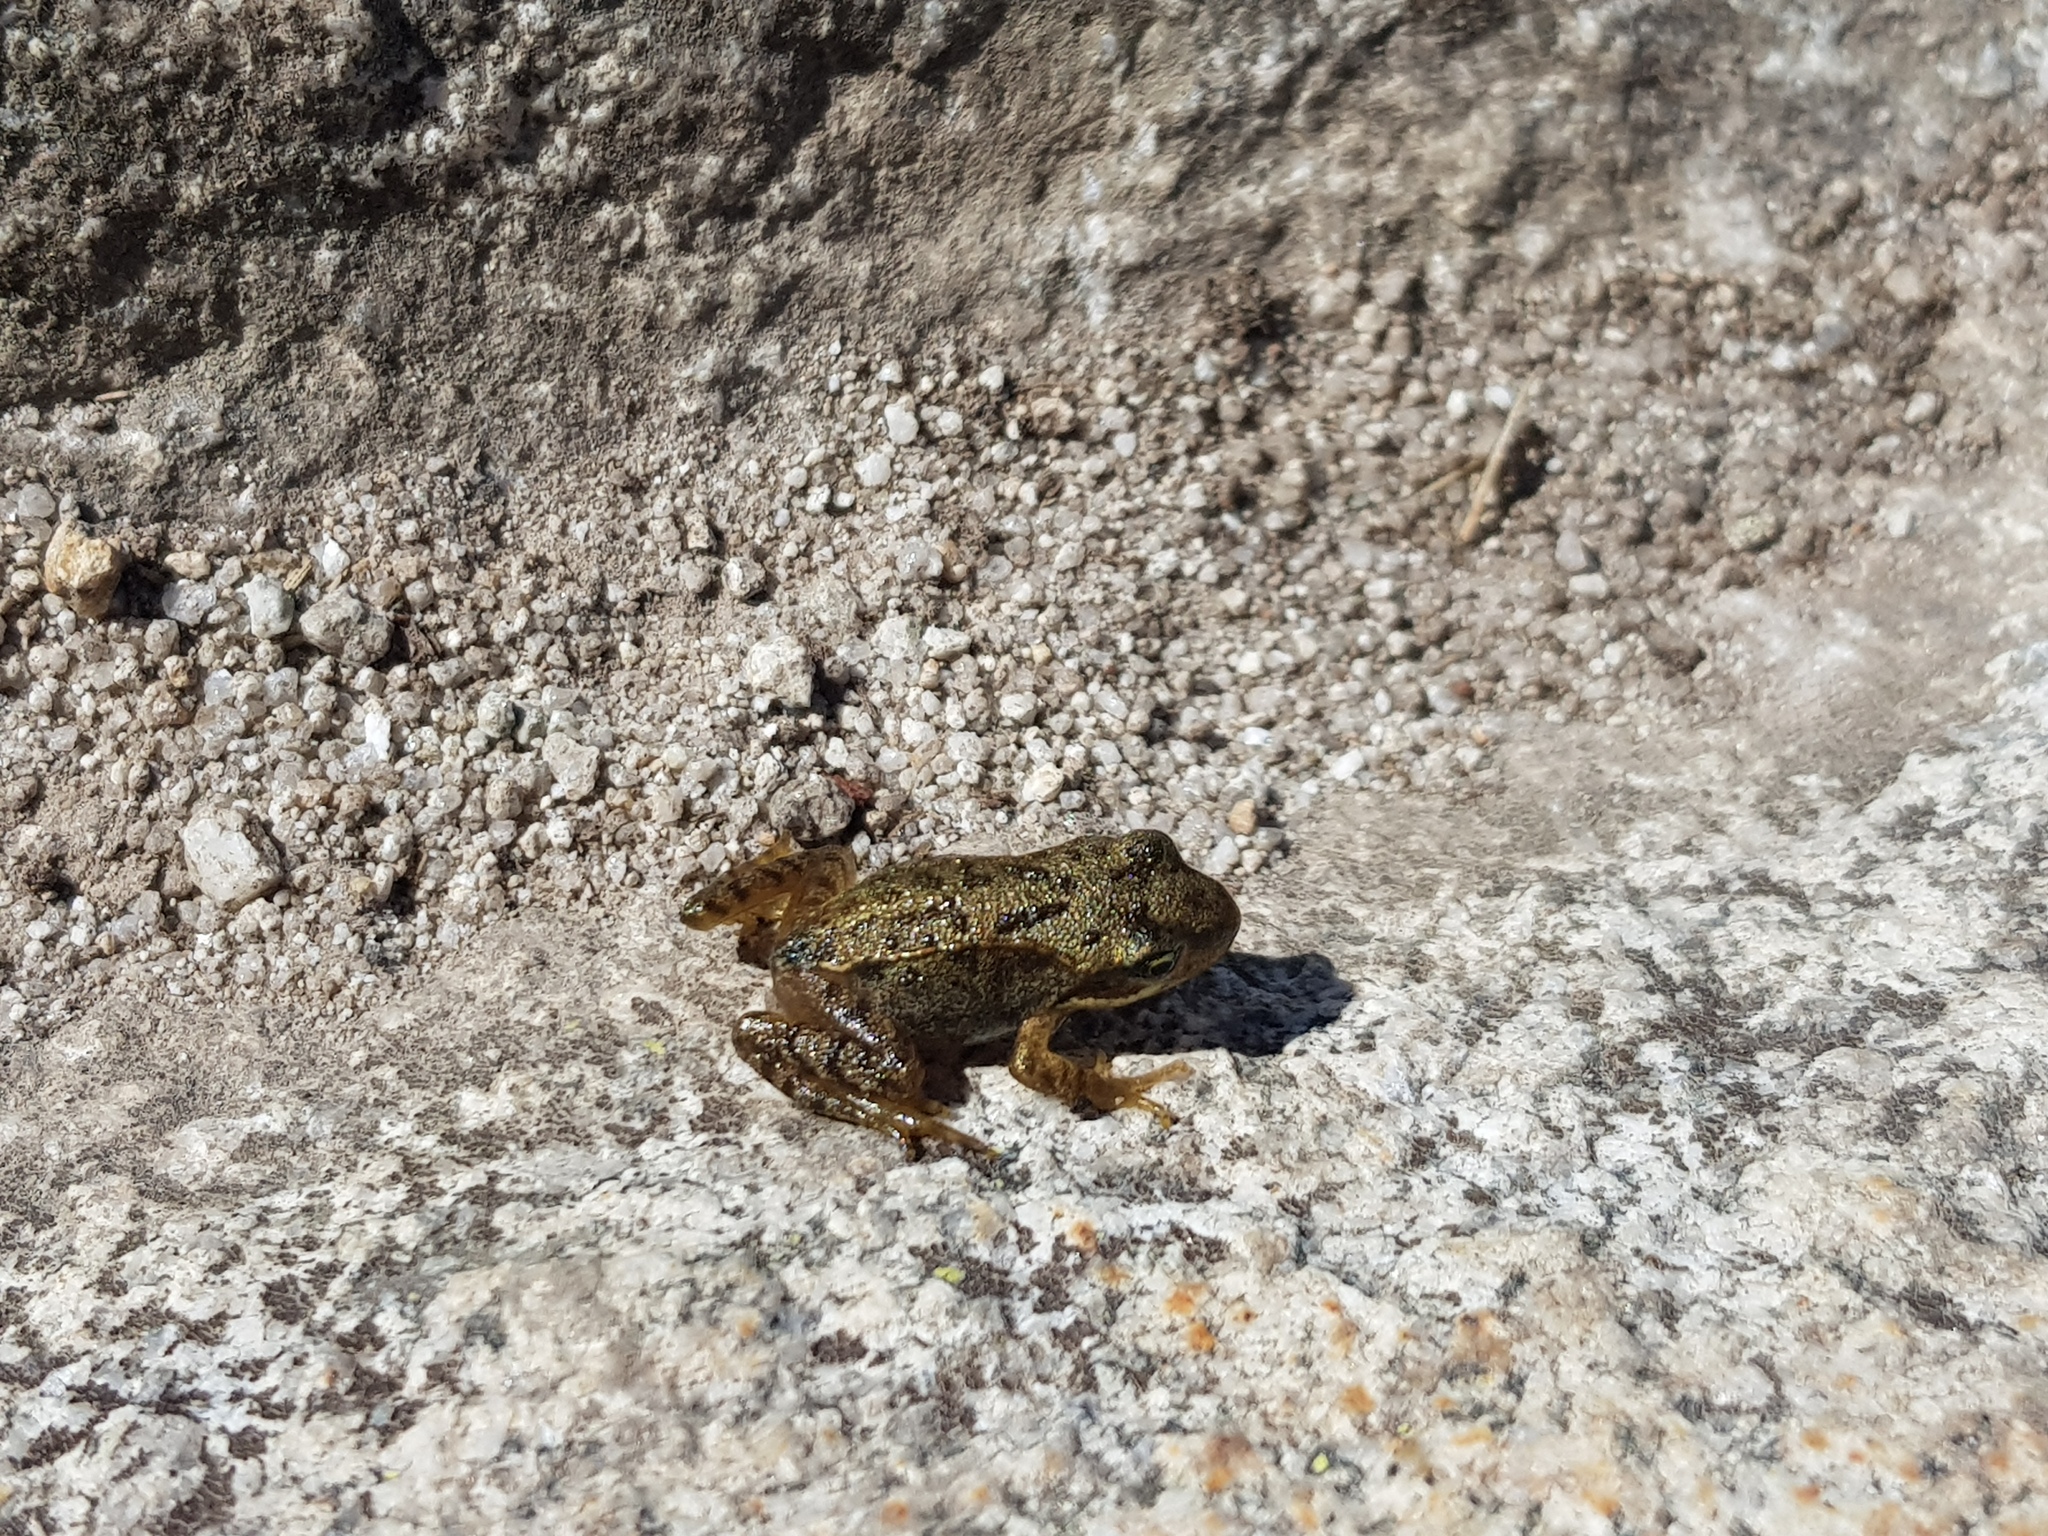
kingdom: Animalia
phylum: Chordata
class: Amphibia
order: Anura
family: Ranidae
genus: Rana
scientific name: Rana temporaria
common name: Common frog
